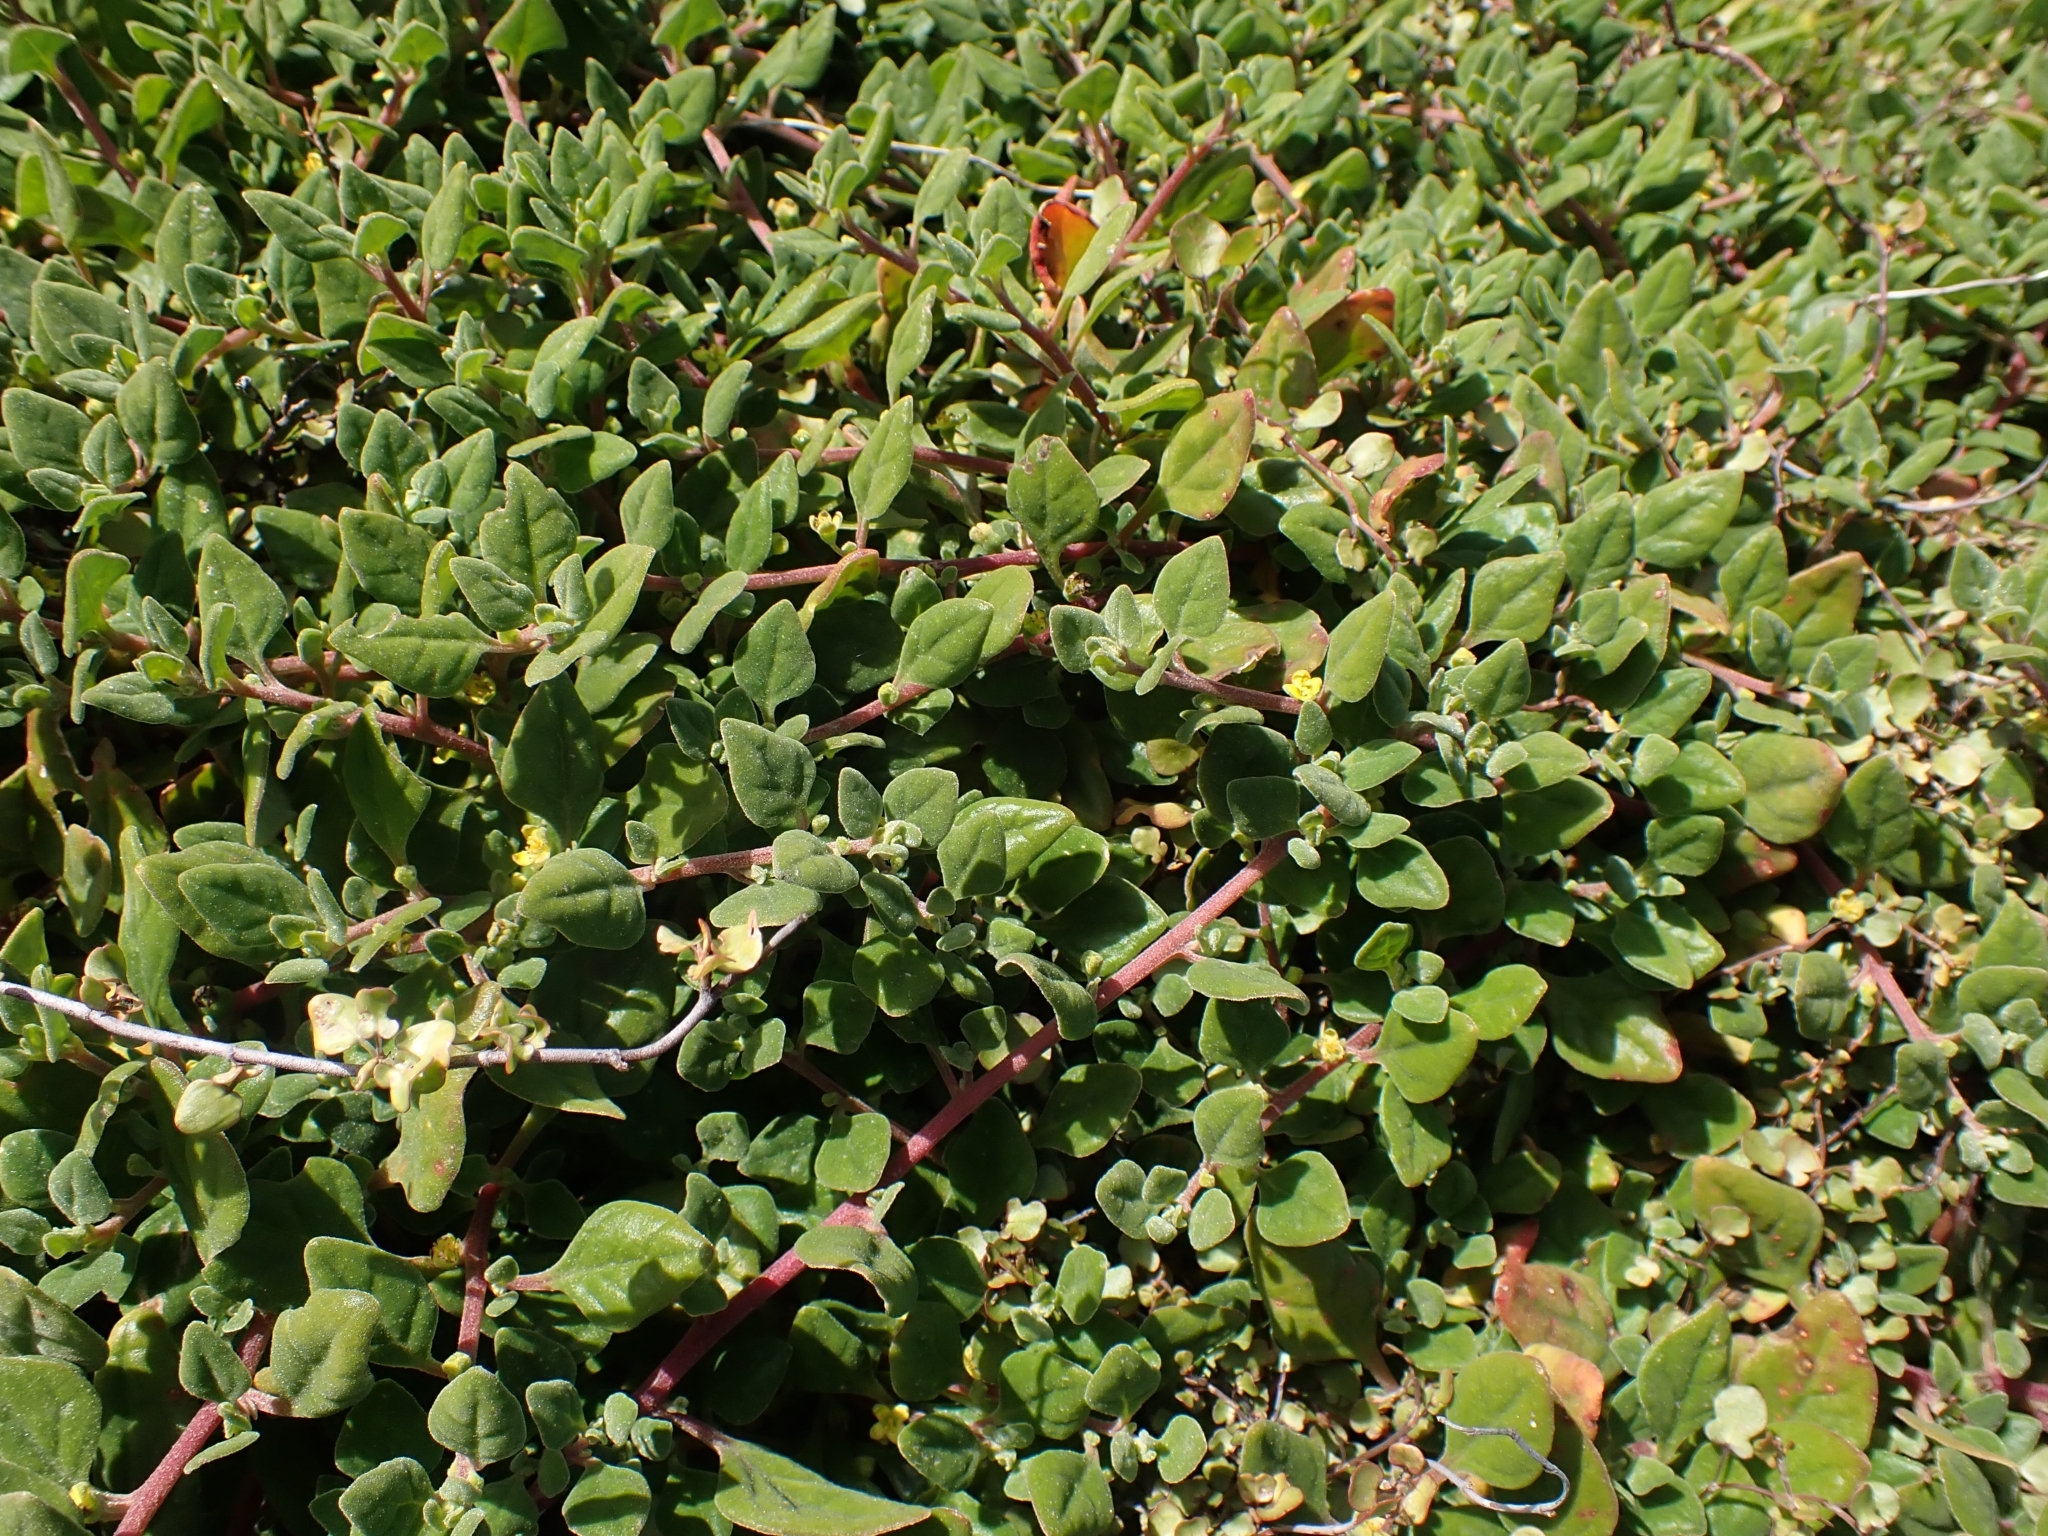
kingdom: Plantae
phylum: Tracheophyta
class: Magnoliopsida
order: Caryophyllales
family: Aizoaceae
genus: Tetragonia
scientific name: Tetragonia implexicoma
